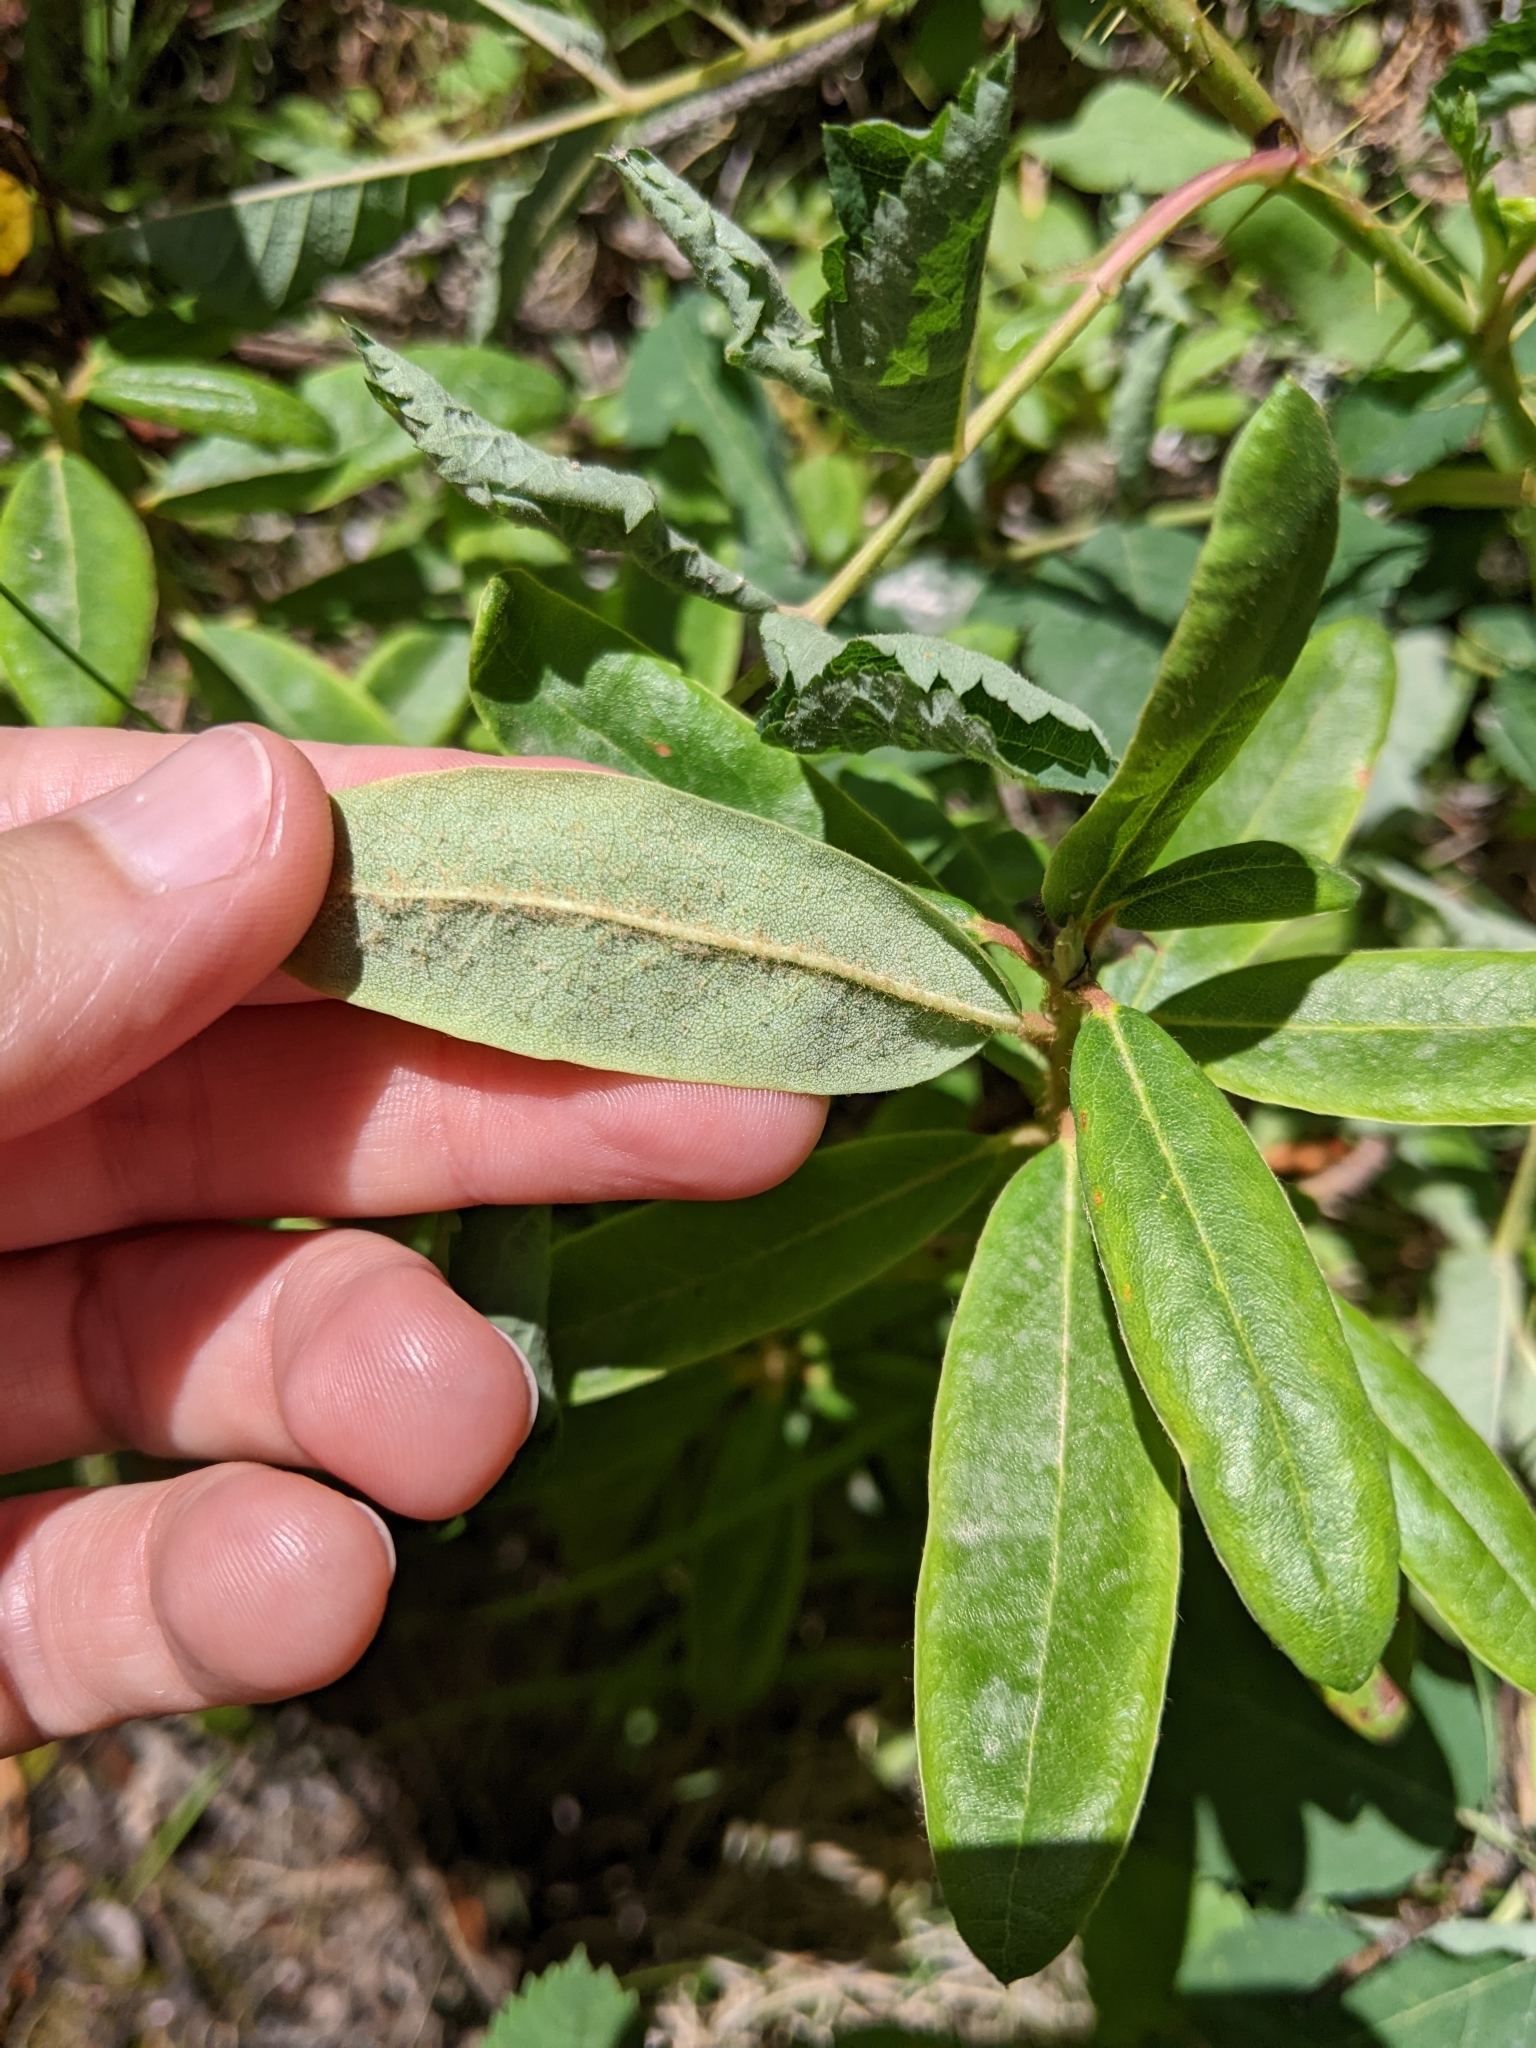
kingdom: Plantae
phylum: Tracheophyta
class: Magnoliopsida
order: Ericales
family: Ericaceae
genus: Rhododendron
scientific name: Rhododendron columbianum
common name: Western labrador tea
